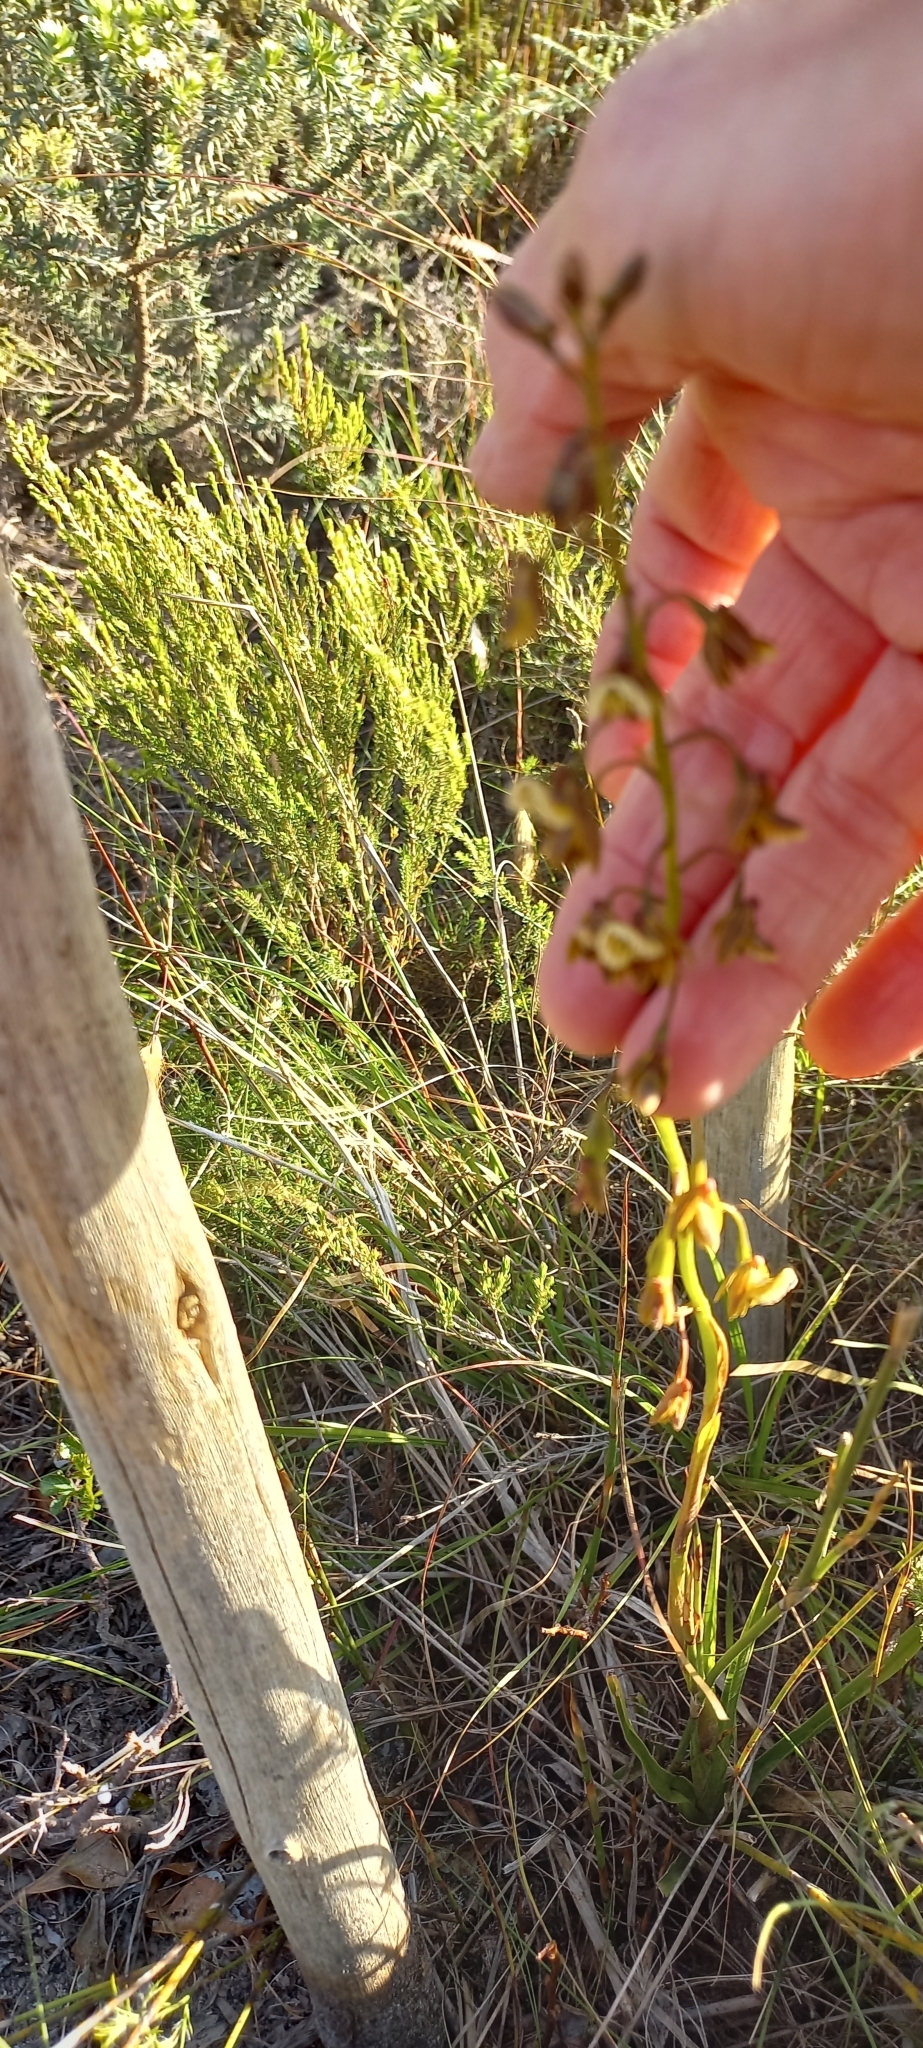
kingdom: Plantae
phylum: Tracheophyta
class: Liliopsida
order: Asparagales
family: Orchidaceae
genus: Eulophia
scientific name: Eulophia bolusii
